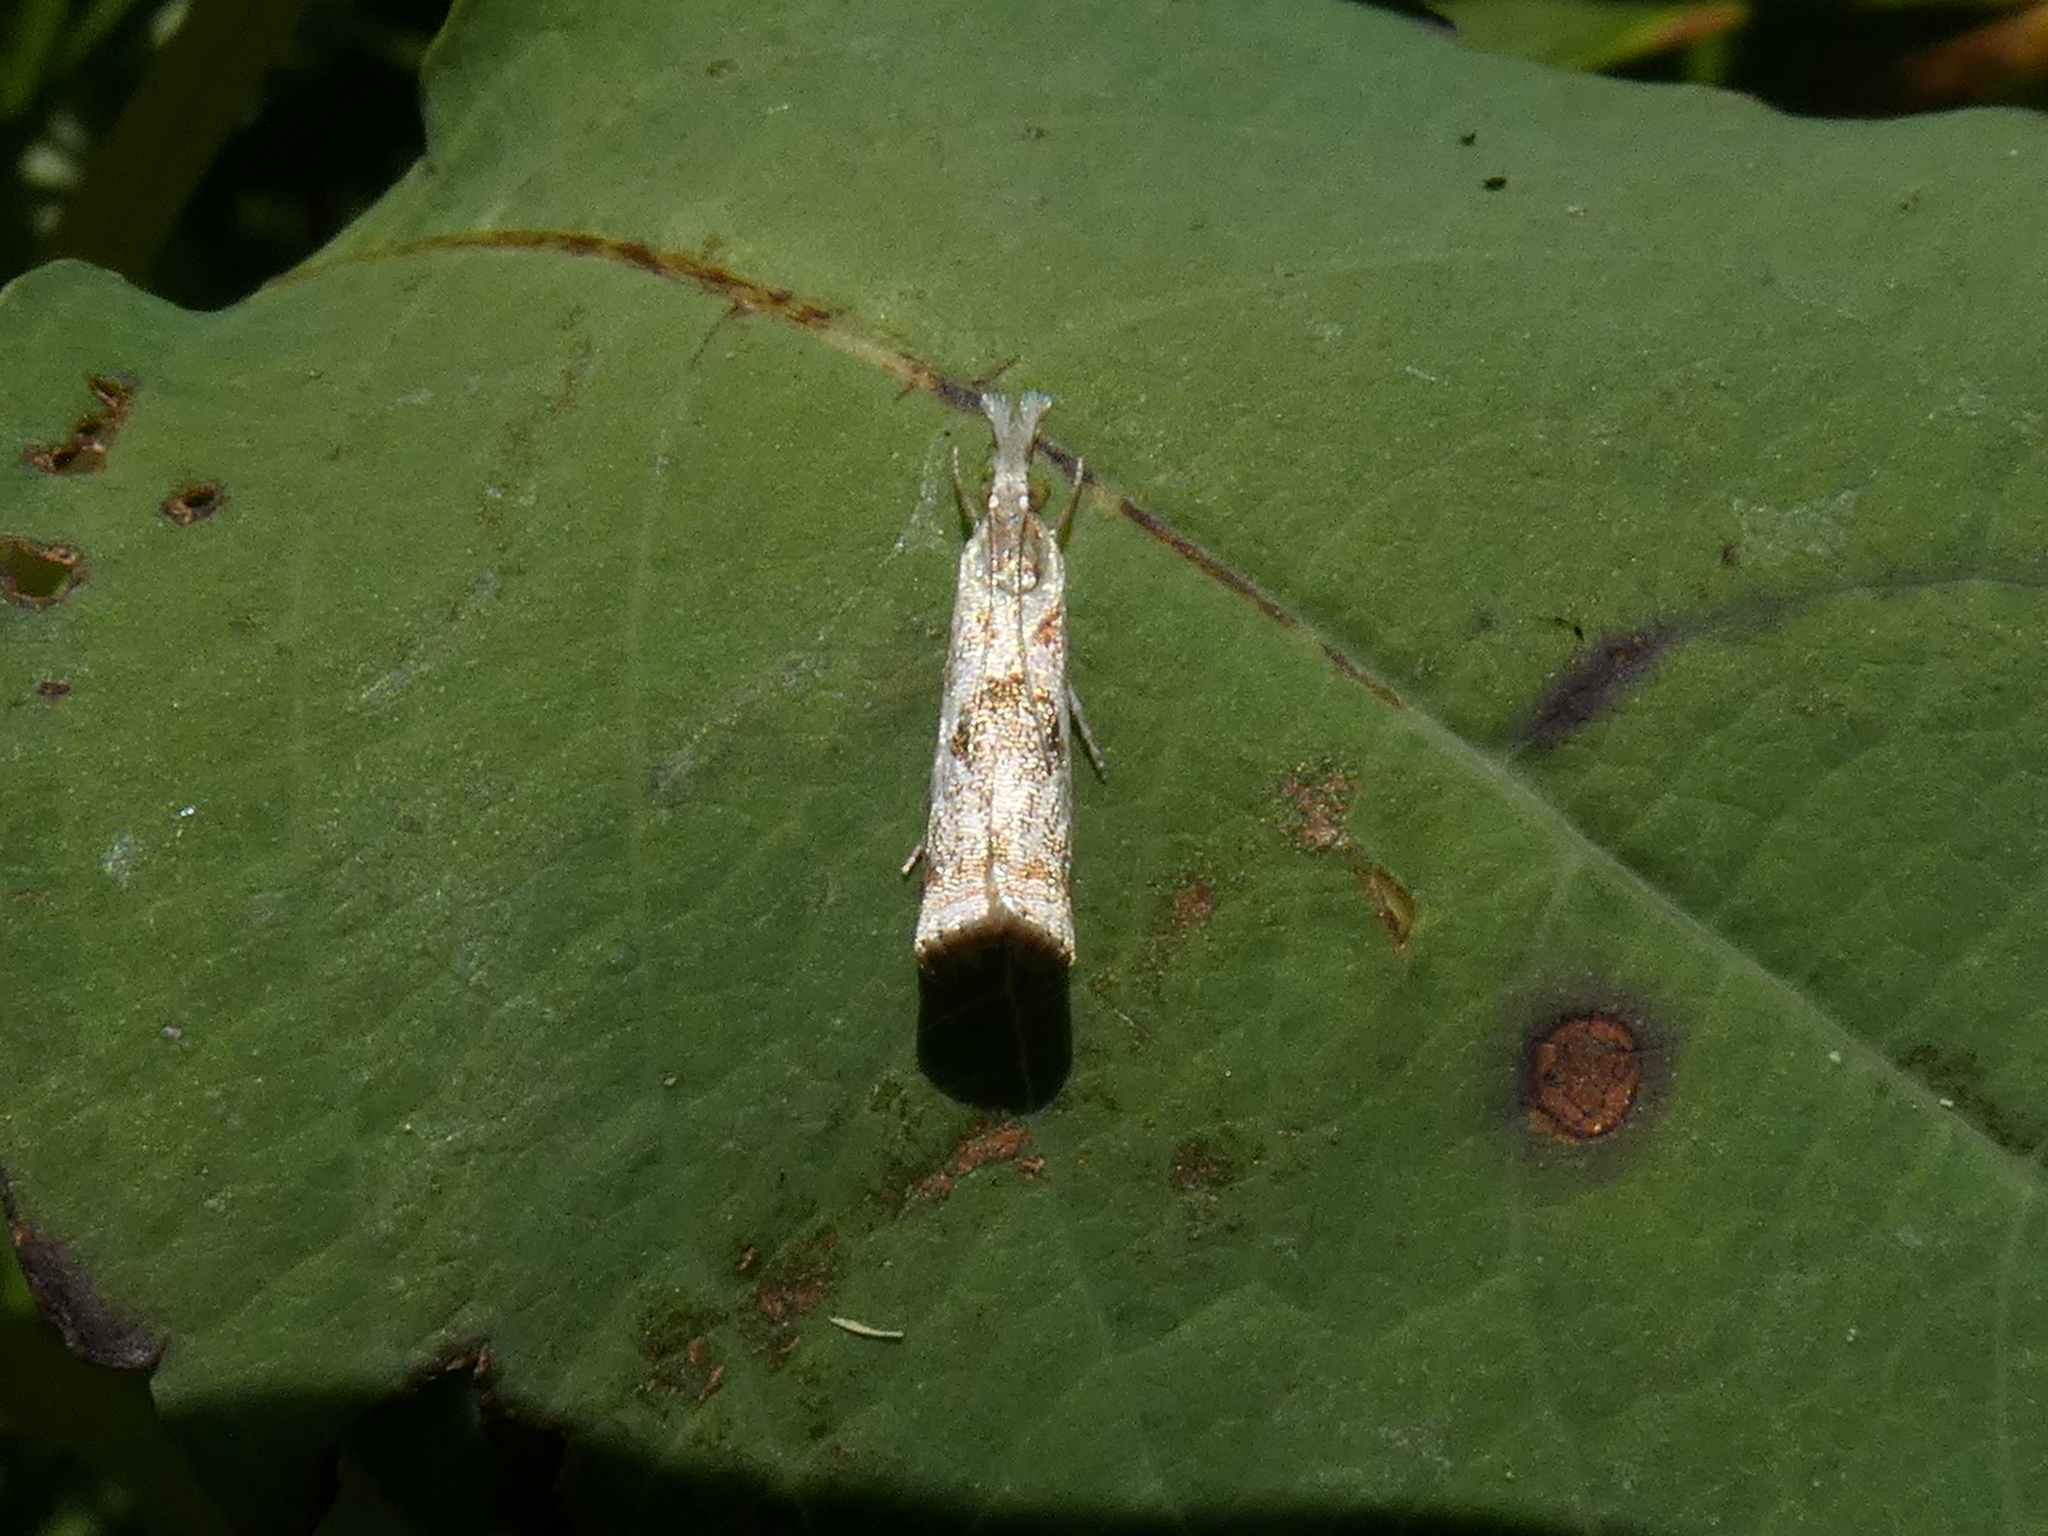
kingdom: Animalia
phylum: Arthropoda
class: Insecta
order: Lepidoptera
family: Crambidae
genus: Microcrambus
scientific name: Microcrambus elegans
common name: Elegant grass-veneer
